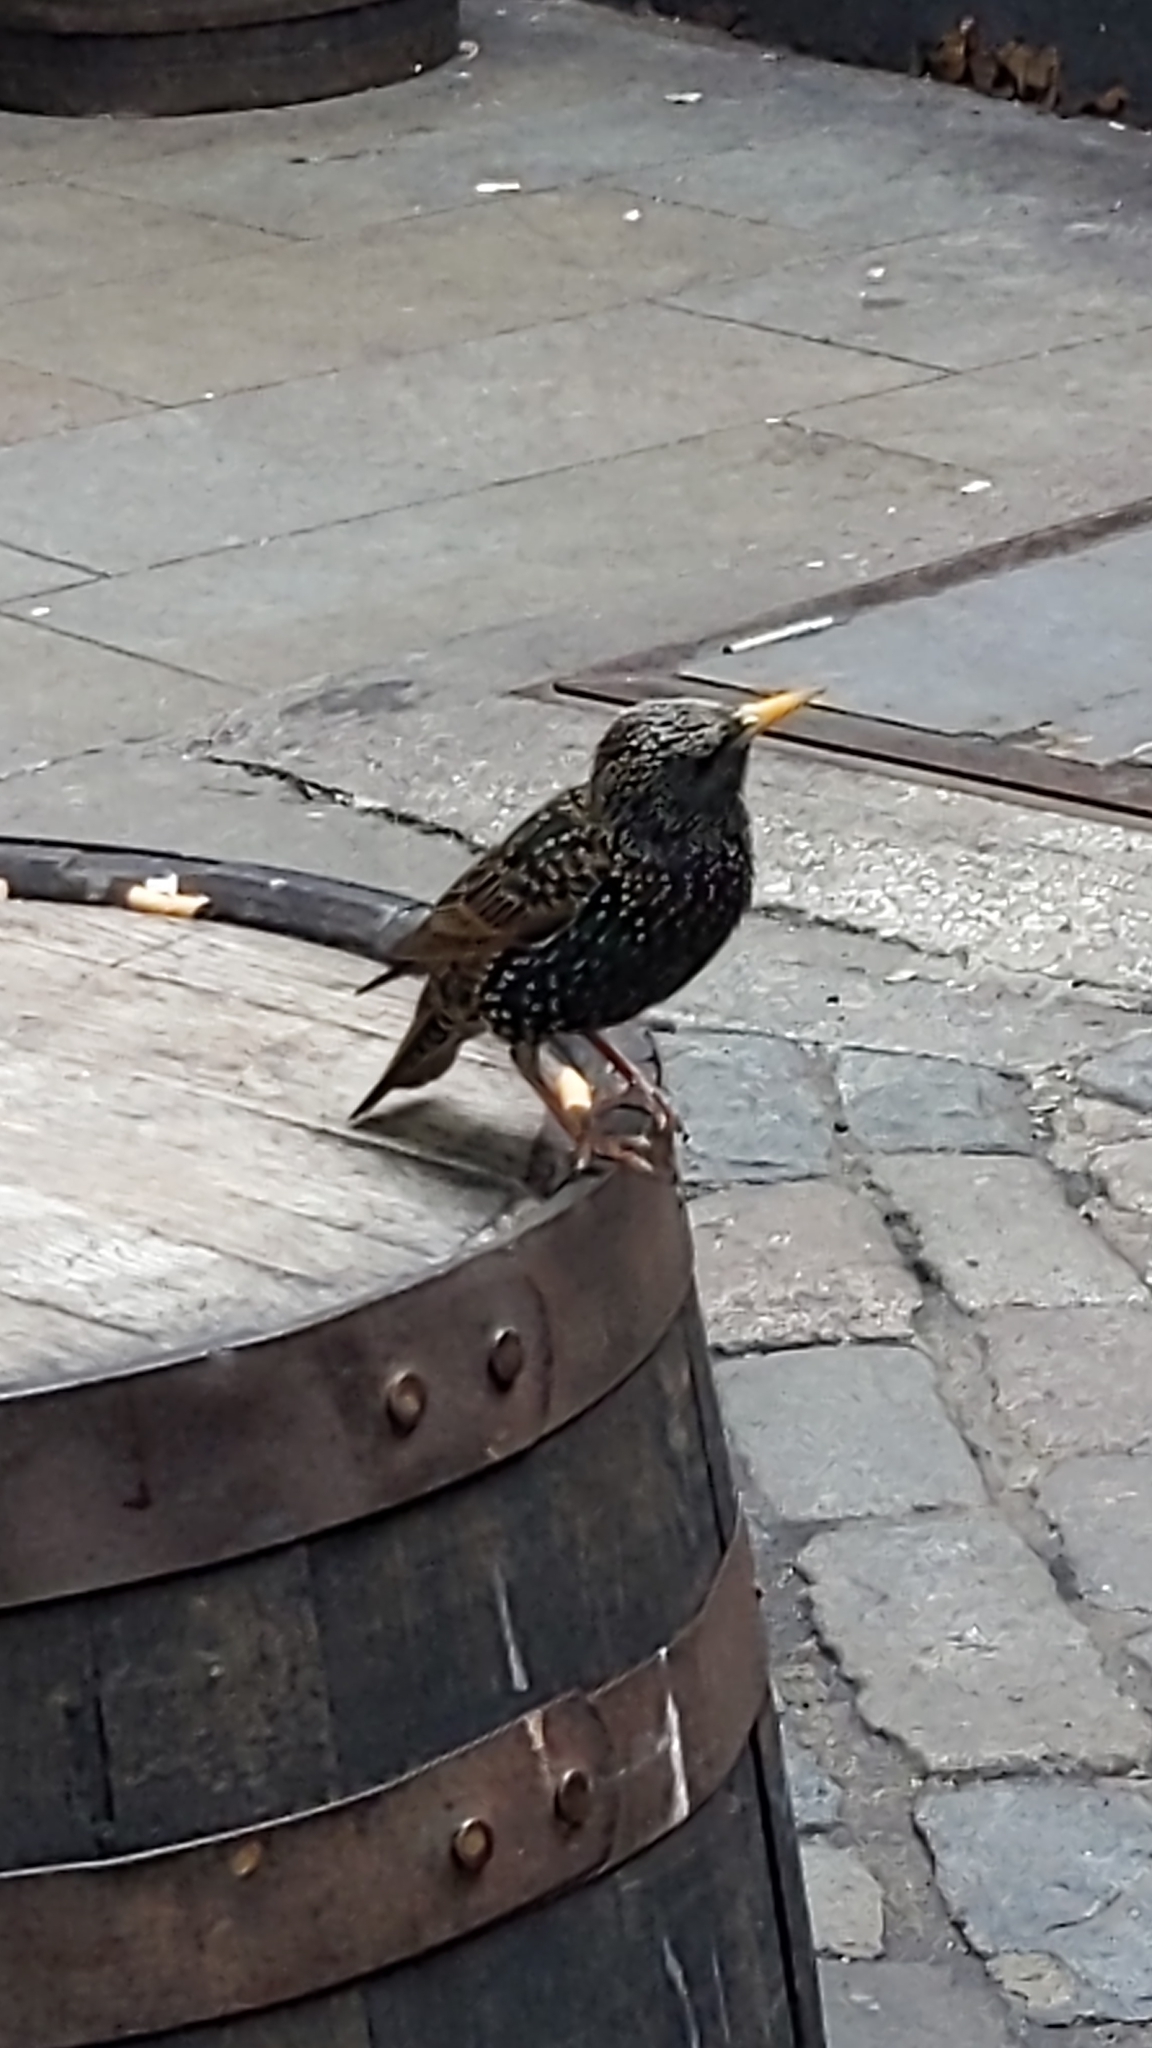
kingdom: Animalia
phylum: Chordata
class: Aves
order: Passeriformes
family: Sturnidae
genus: Sturnus
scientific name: Sturnus vulgaris
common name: Common starling
